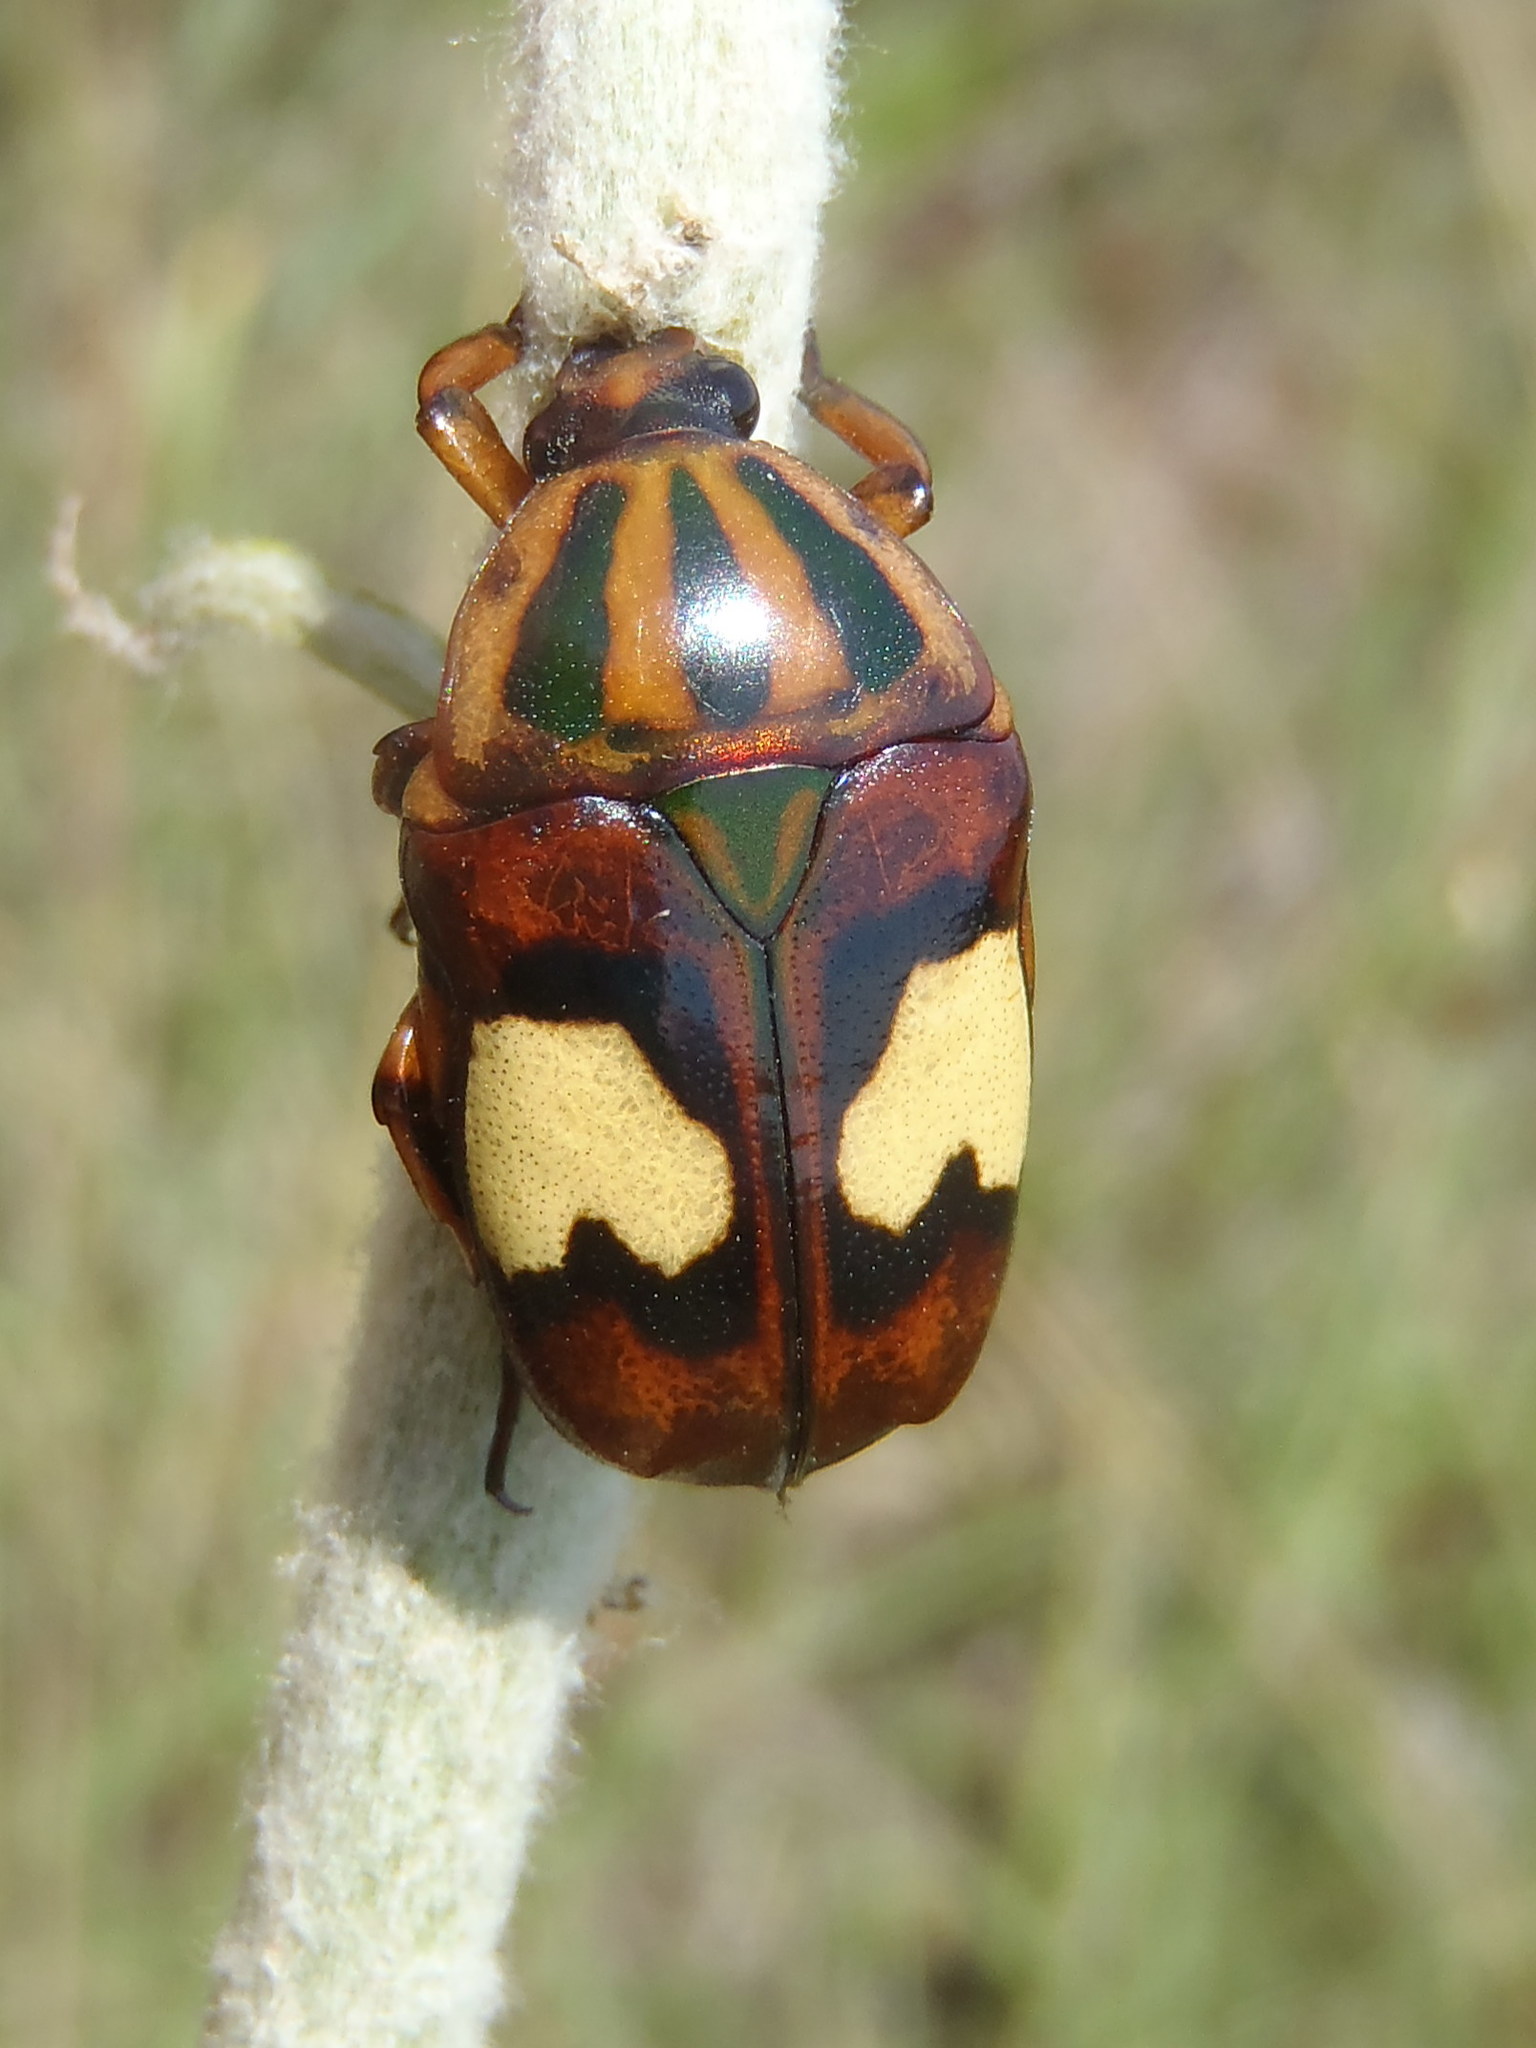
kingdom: Animalia
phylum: Arthropoda
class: Insecta
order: Coleoptera
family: Scarabaeidae
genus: Pedinorrhina
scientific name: Pedinorrhina
